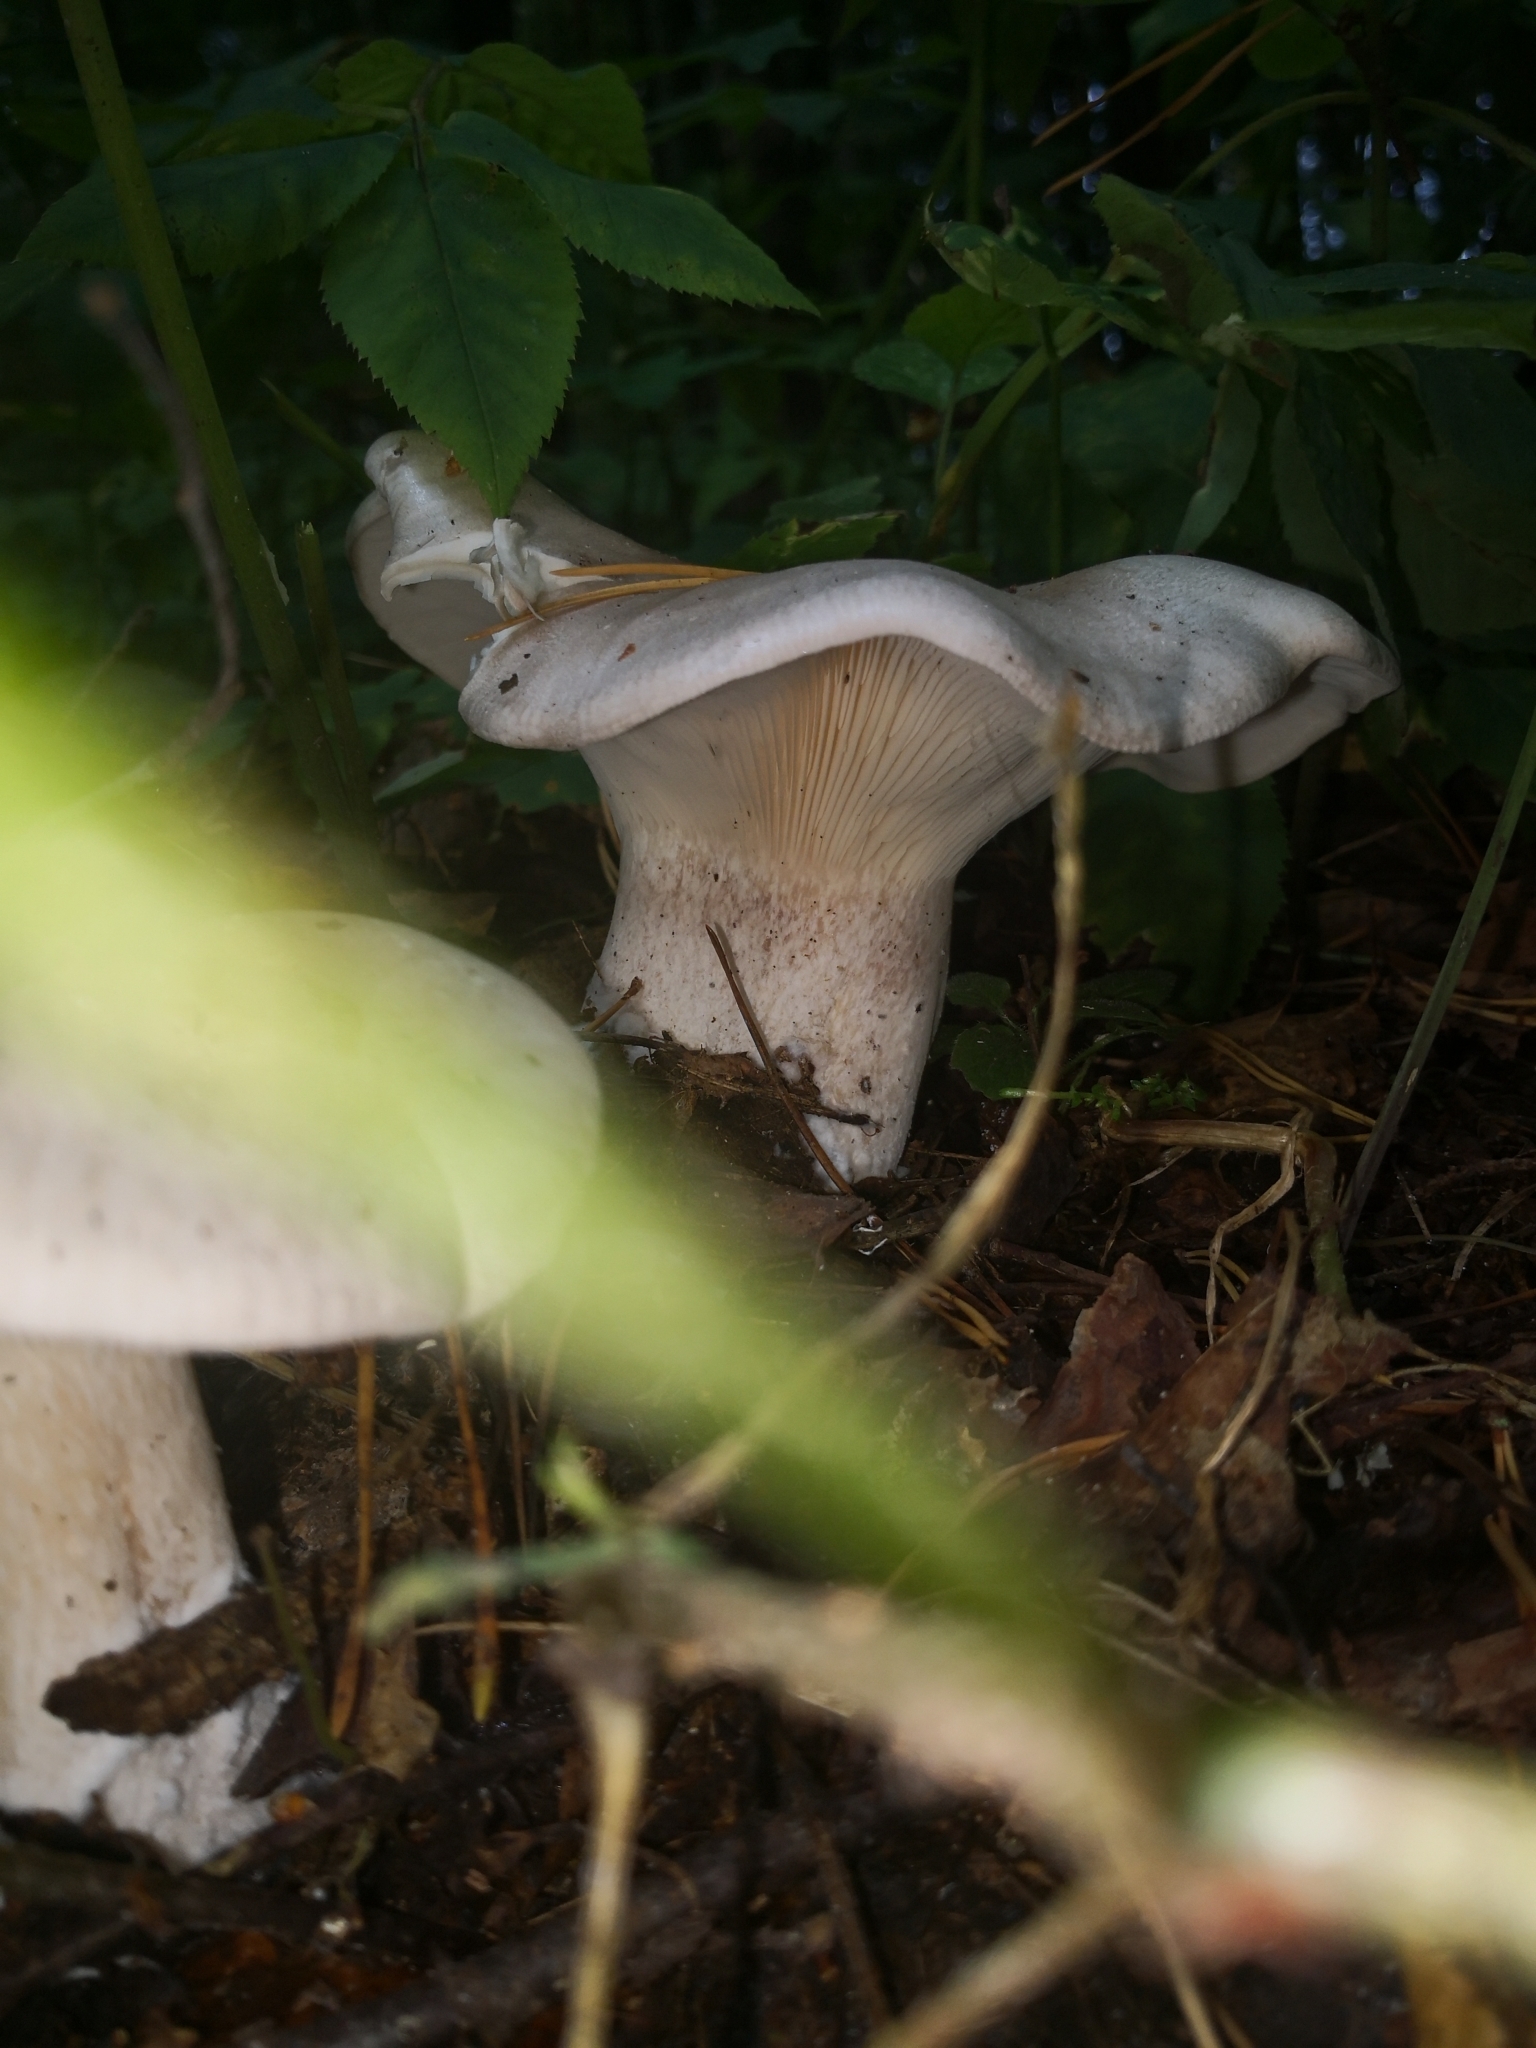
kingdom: Fungi
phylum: Basidiomycota
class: Agaricomycetes
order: Agaricales
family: Tricholomataceae
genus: Clitocybe
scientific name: Clitocybe nebularis
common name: Clouded agaric
